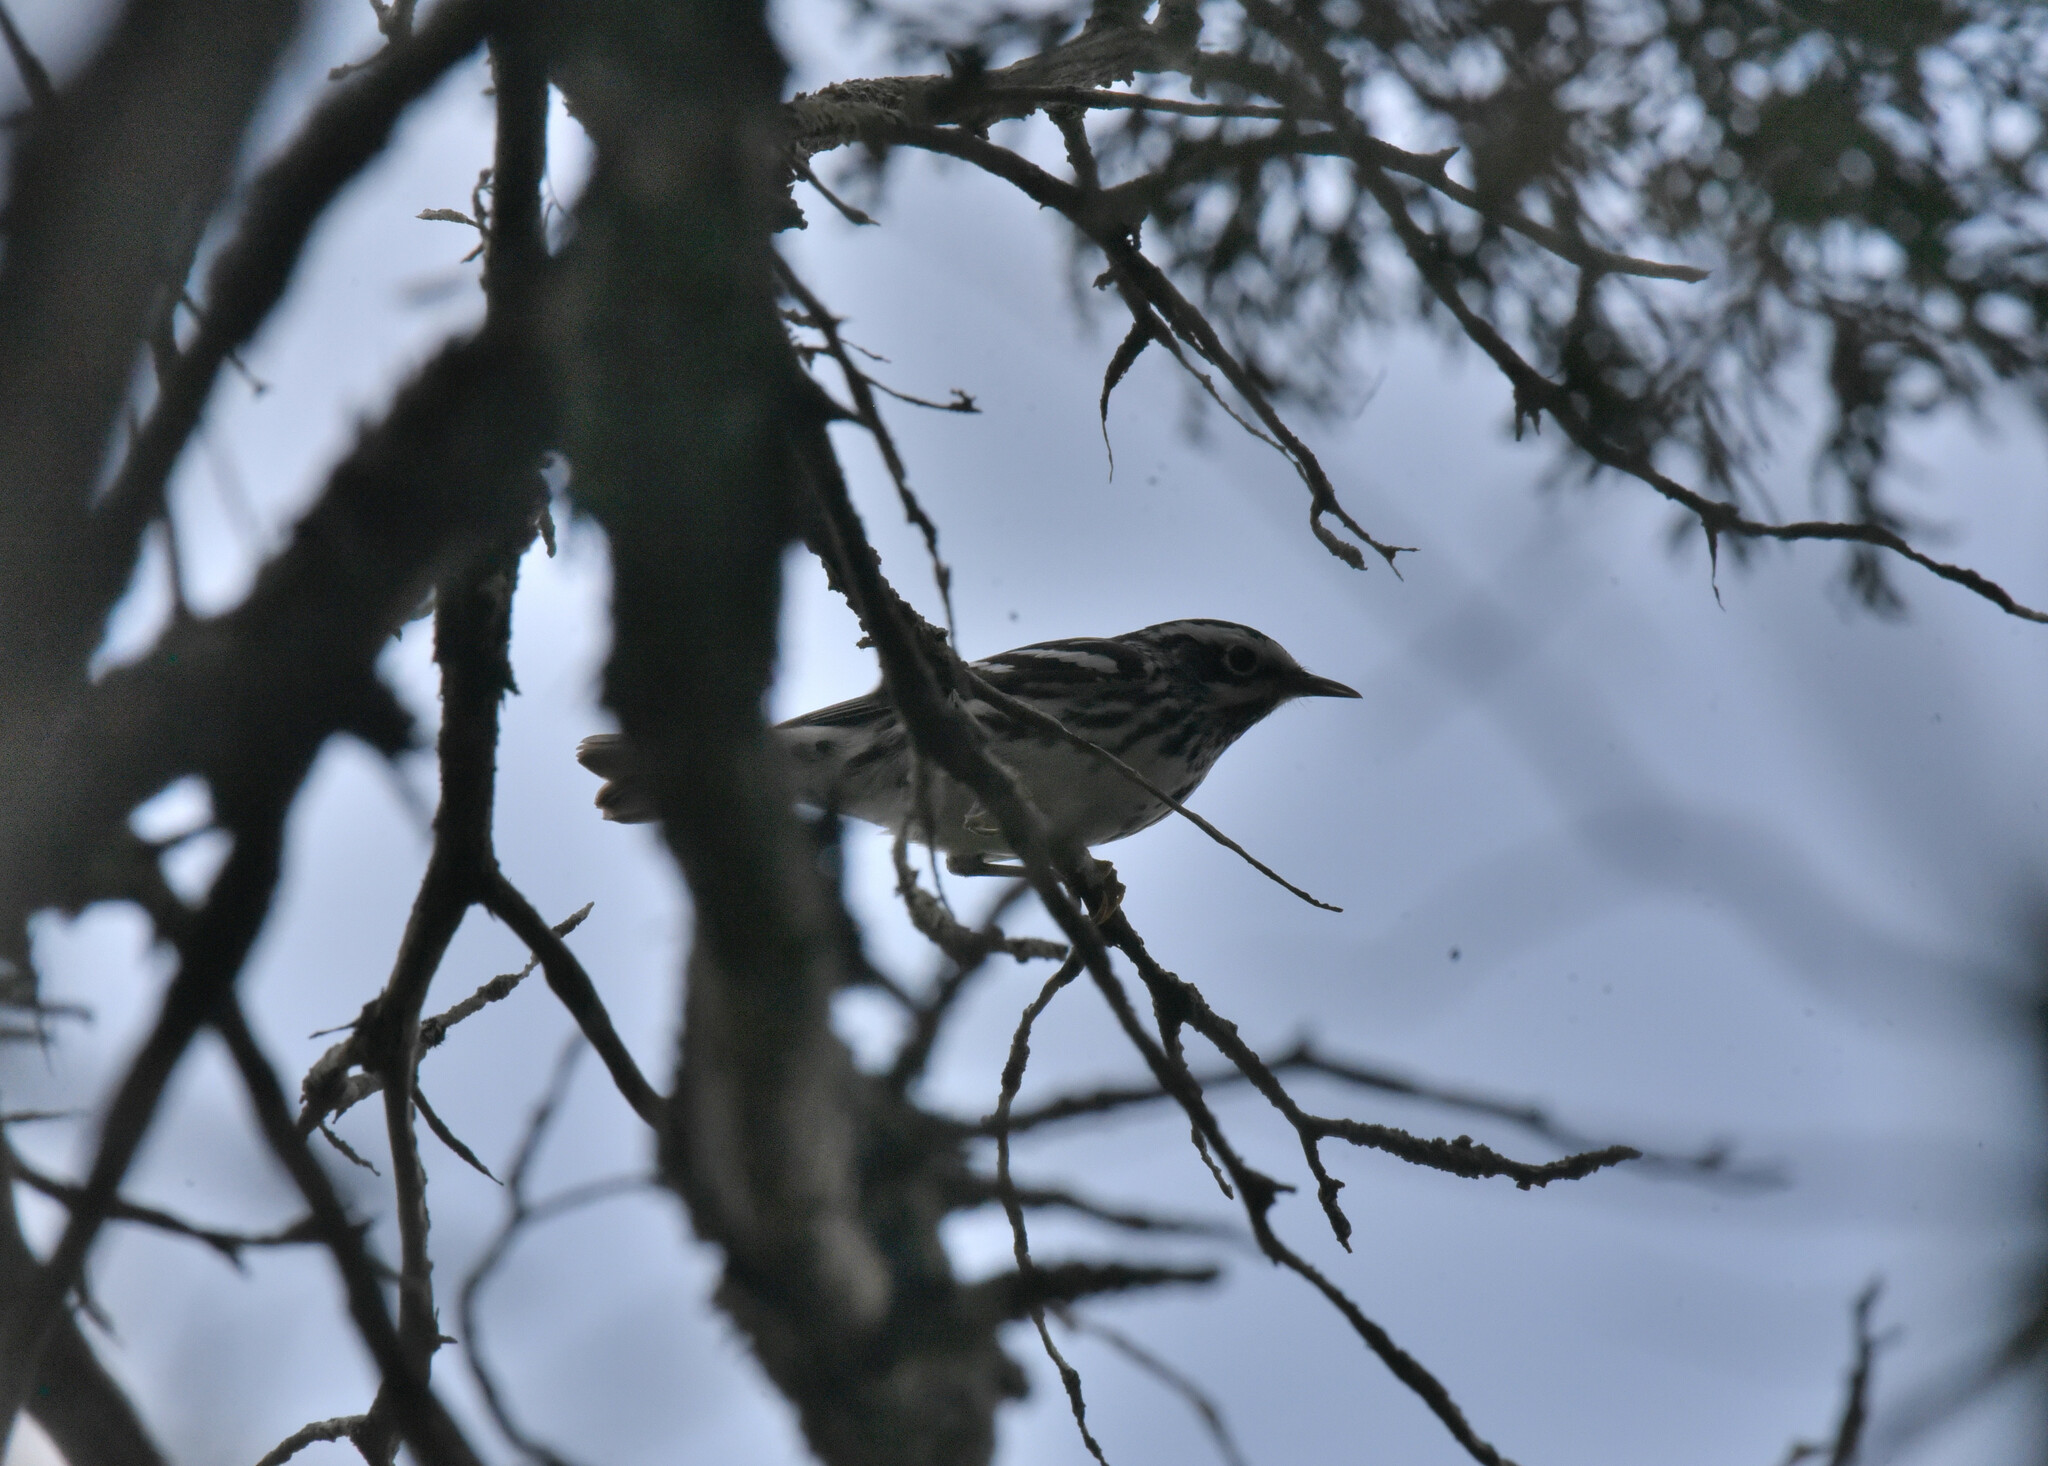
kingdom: Animalia
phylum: Chordata
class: Aves
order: Passeriformes
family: Parulidae
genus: Mniotilta
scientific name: Mniotilta varia
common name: Black-and-white warbler
